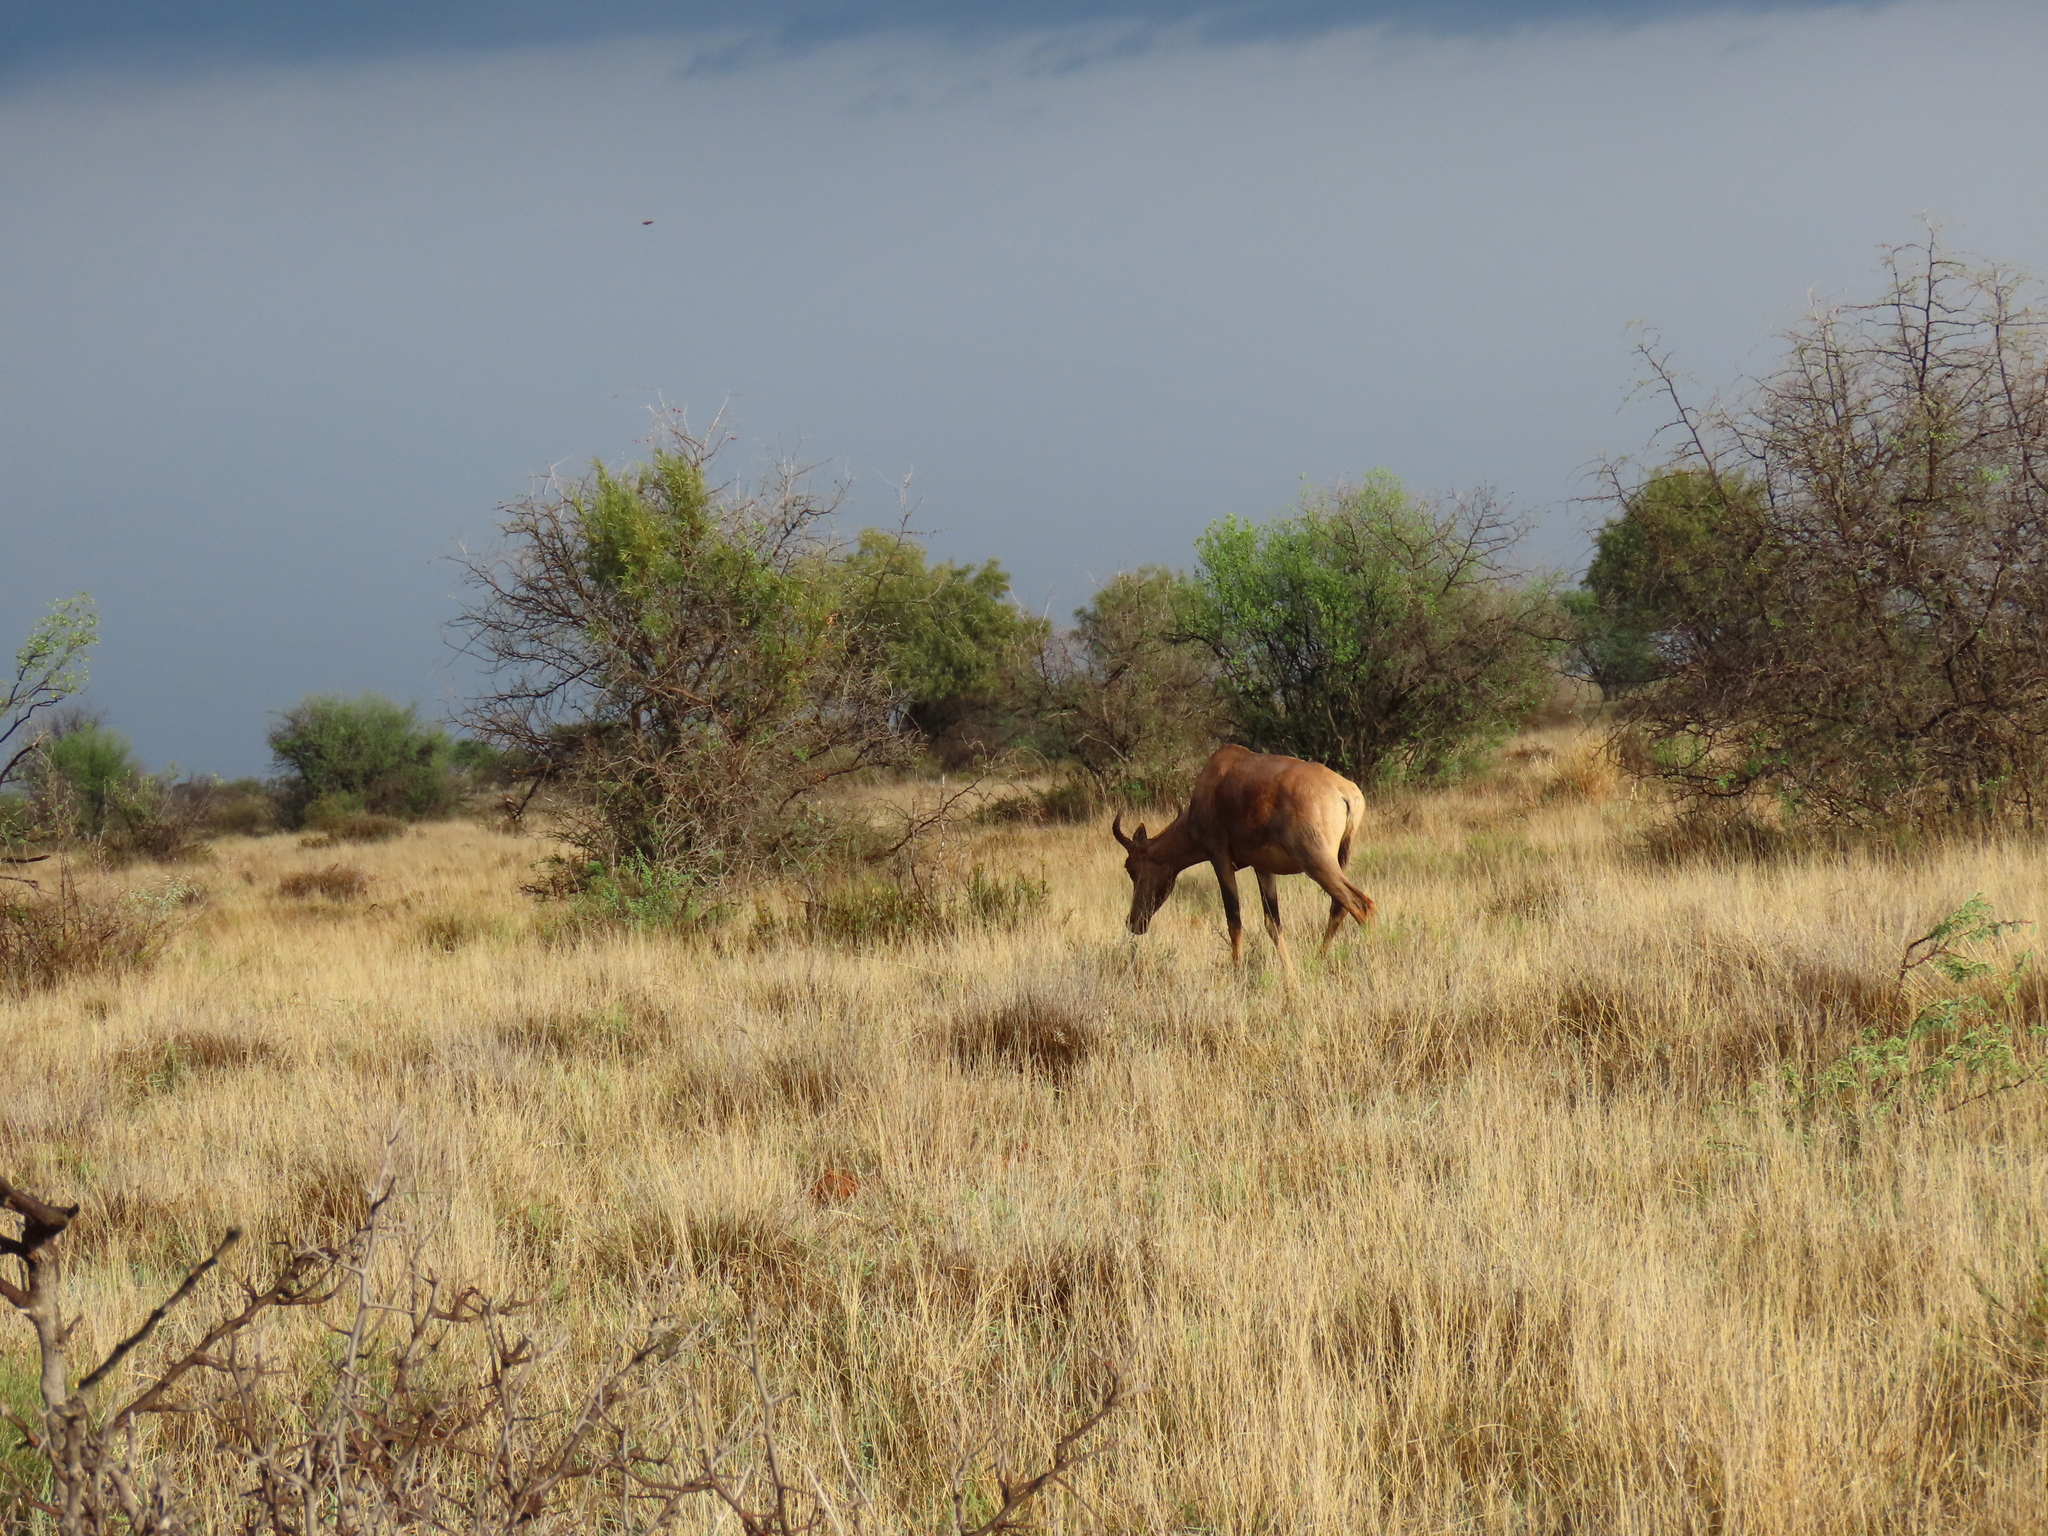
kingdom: Animalia
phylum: Chordata
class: Mammalia
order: Artiodactyla
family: Bovidae
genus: Damaliscus
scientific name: Damaliscus lunatus
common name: Common tsessebe
